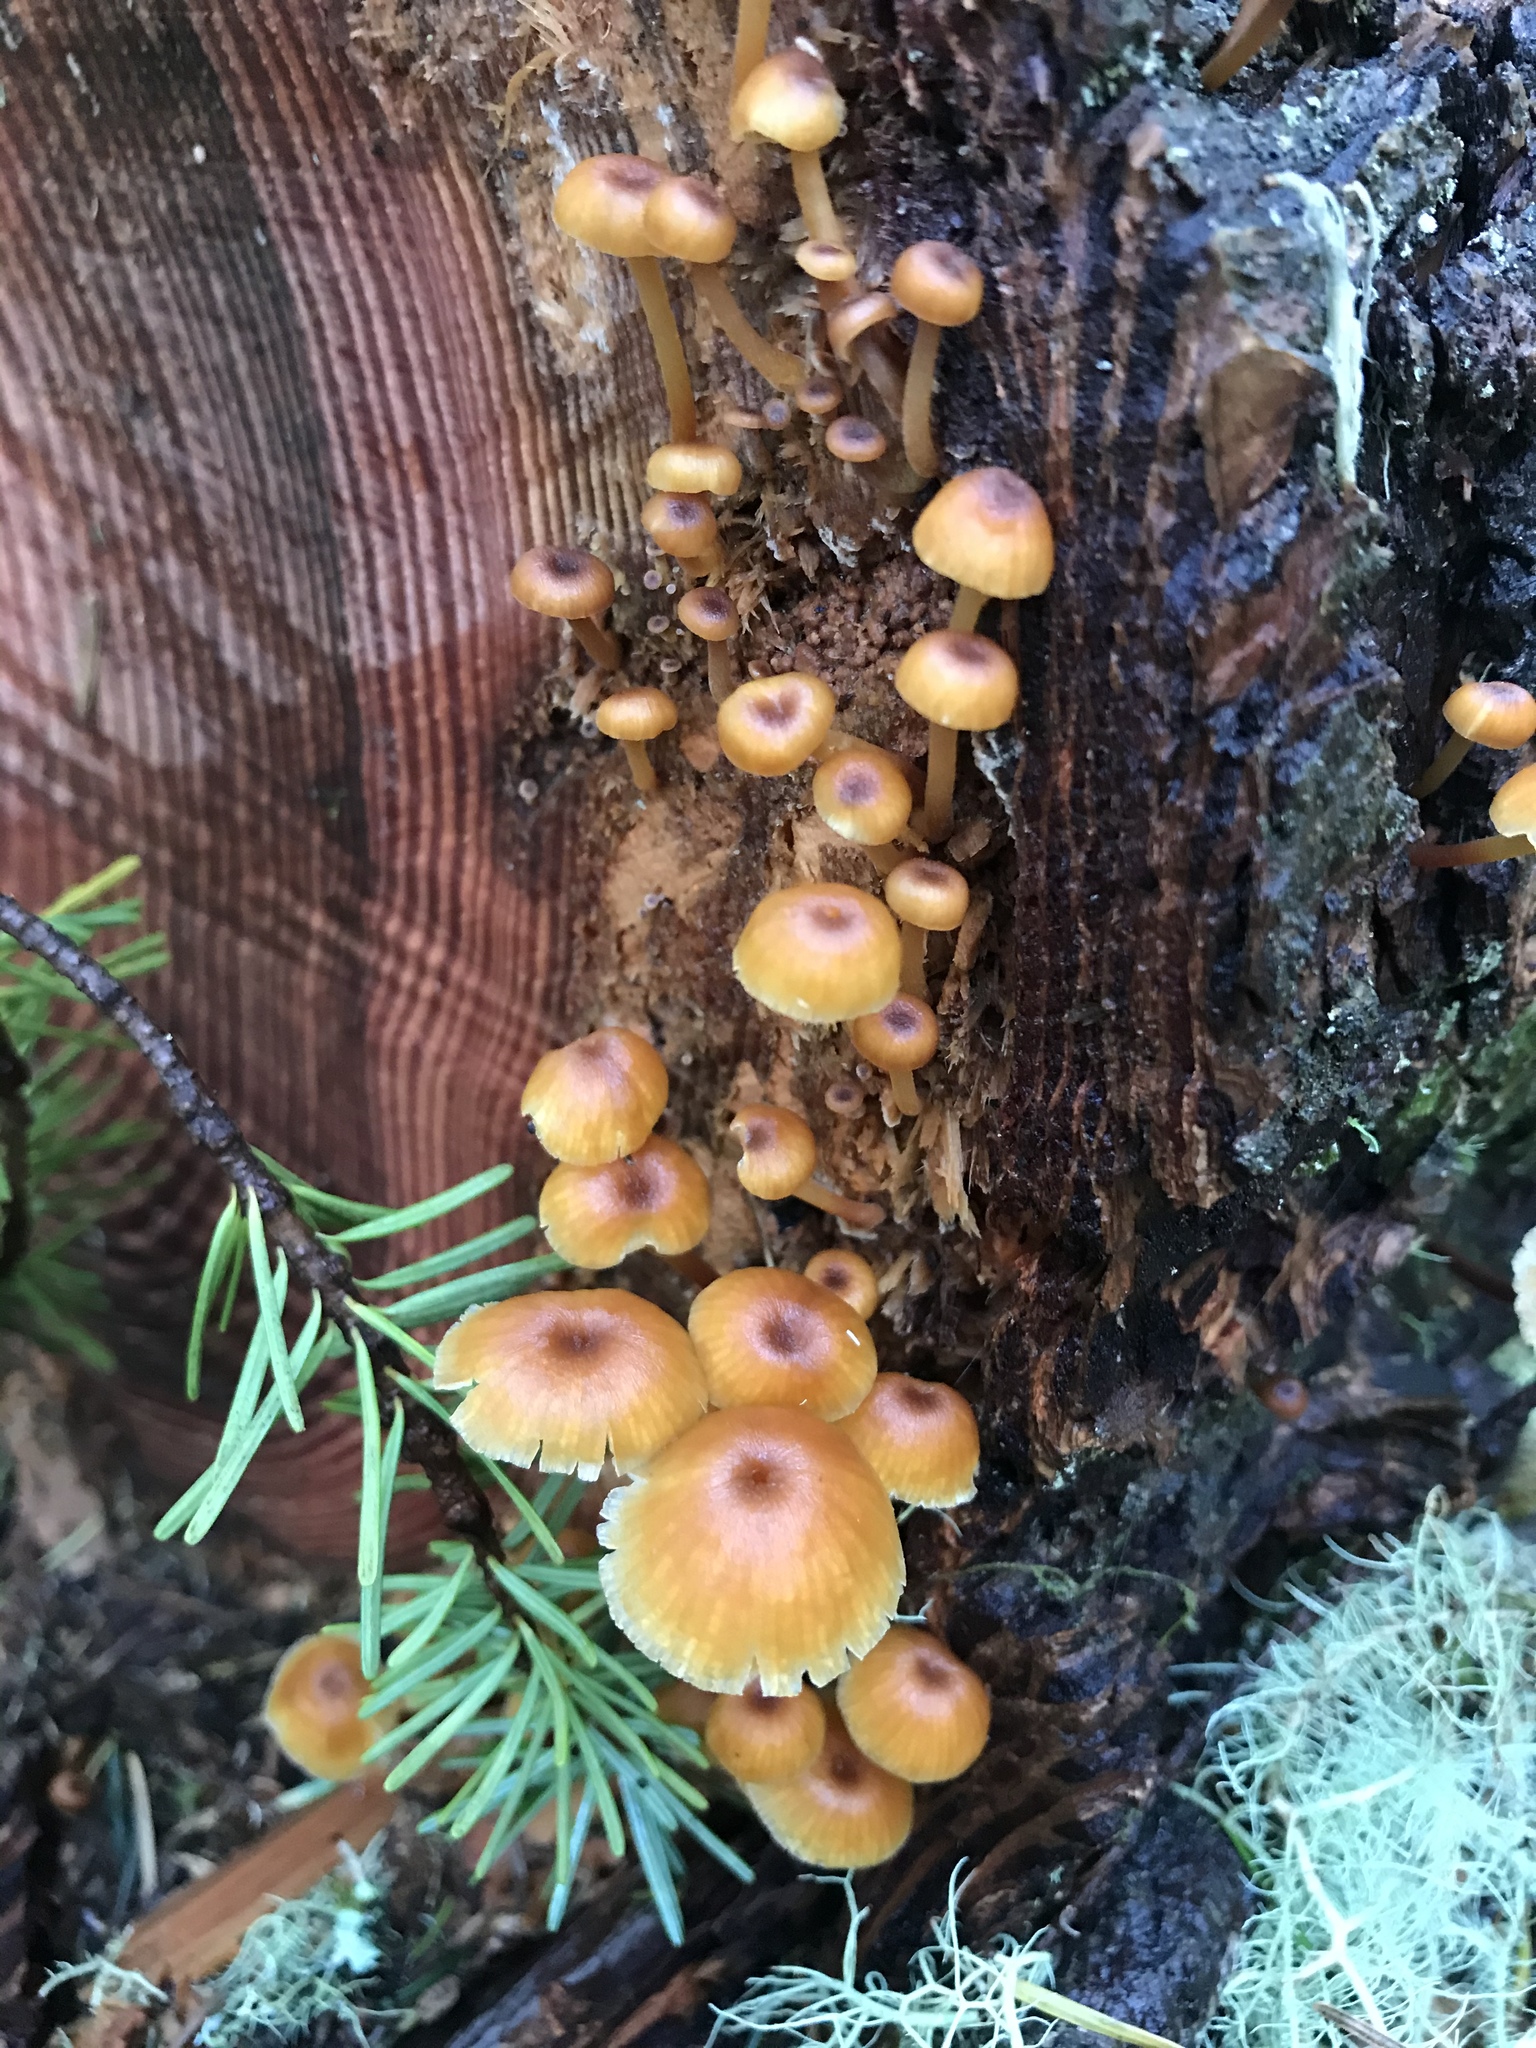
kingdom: Fungi
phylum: Basidiomycota
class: Agaricomycetes
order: Agaricales
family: Mycenaceae
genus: Xeromphalina
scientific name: Xeromphalina campanella
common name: Pinewood gingertail
